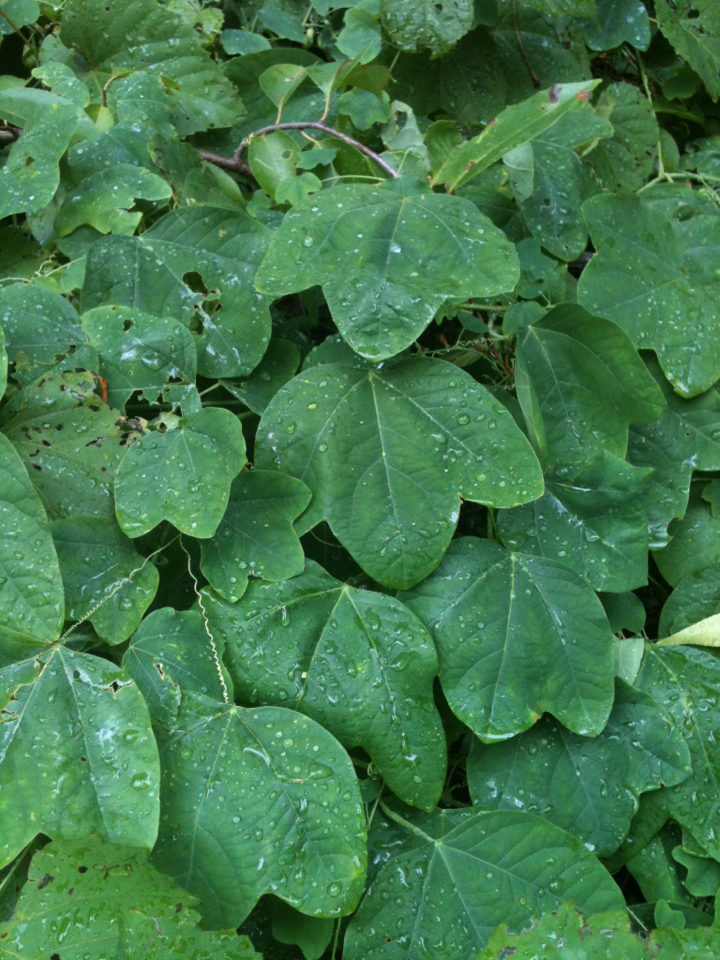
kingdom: Plantae
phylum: Tracheophyta
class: Magnoliopsida
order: Malpighiales
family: Passifloraceae
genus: Passiflora
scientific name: Passiflora lutea
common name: Yellow passionflower
